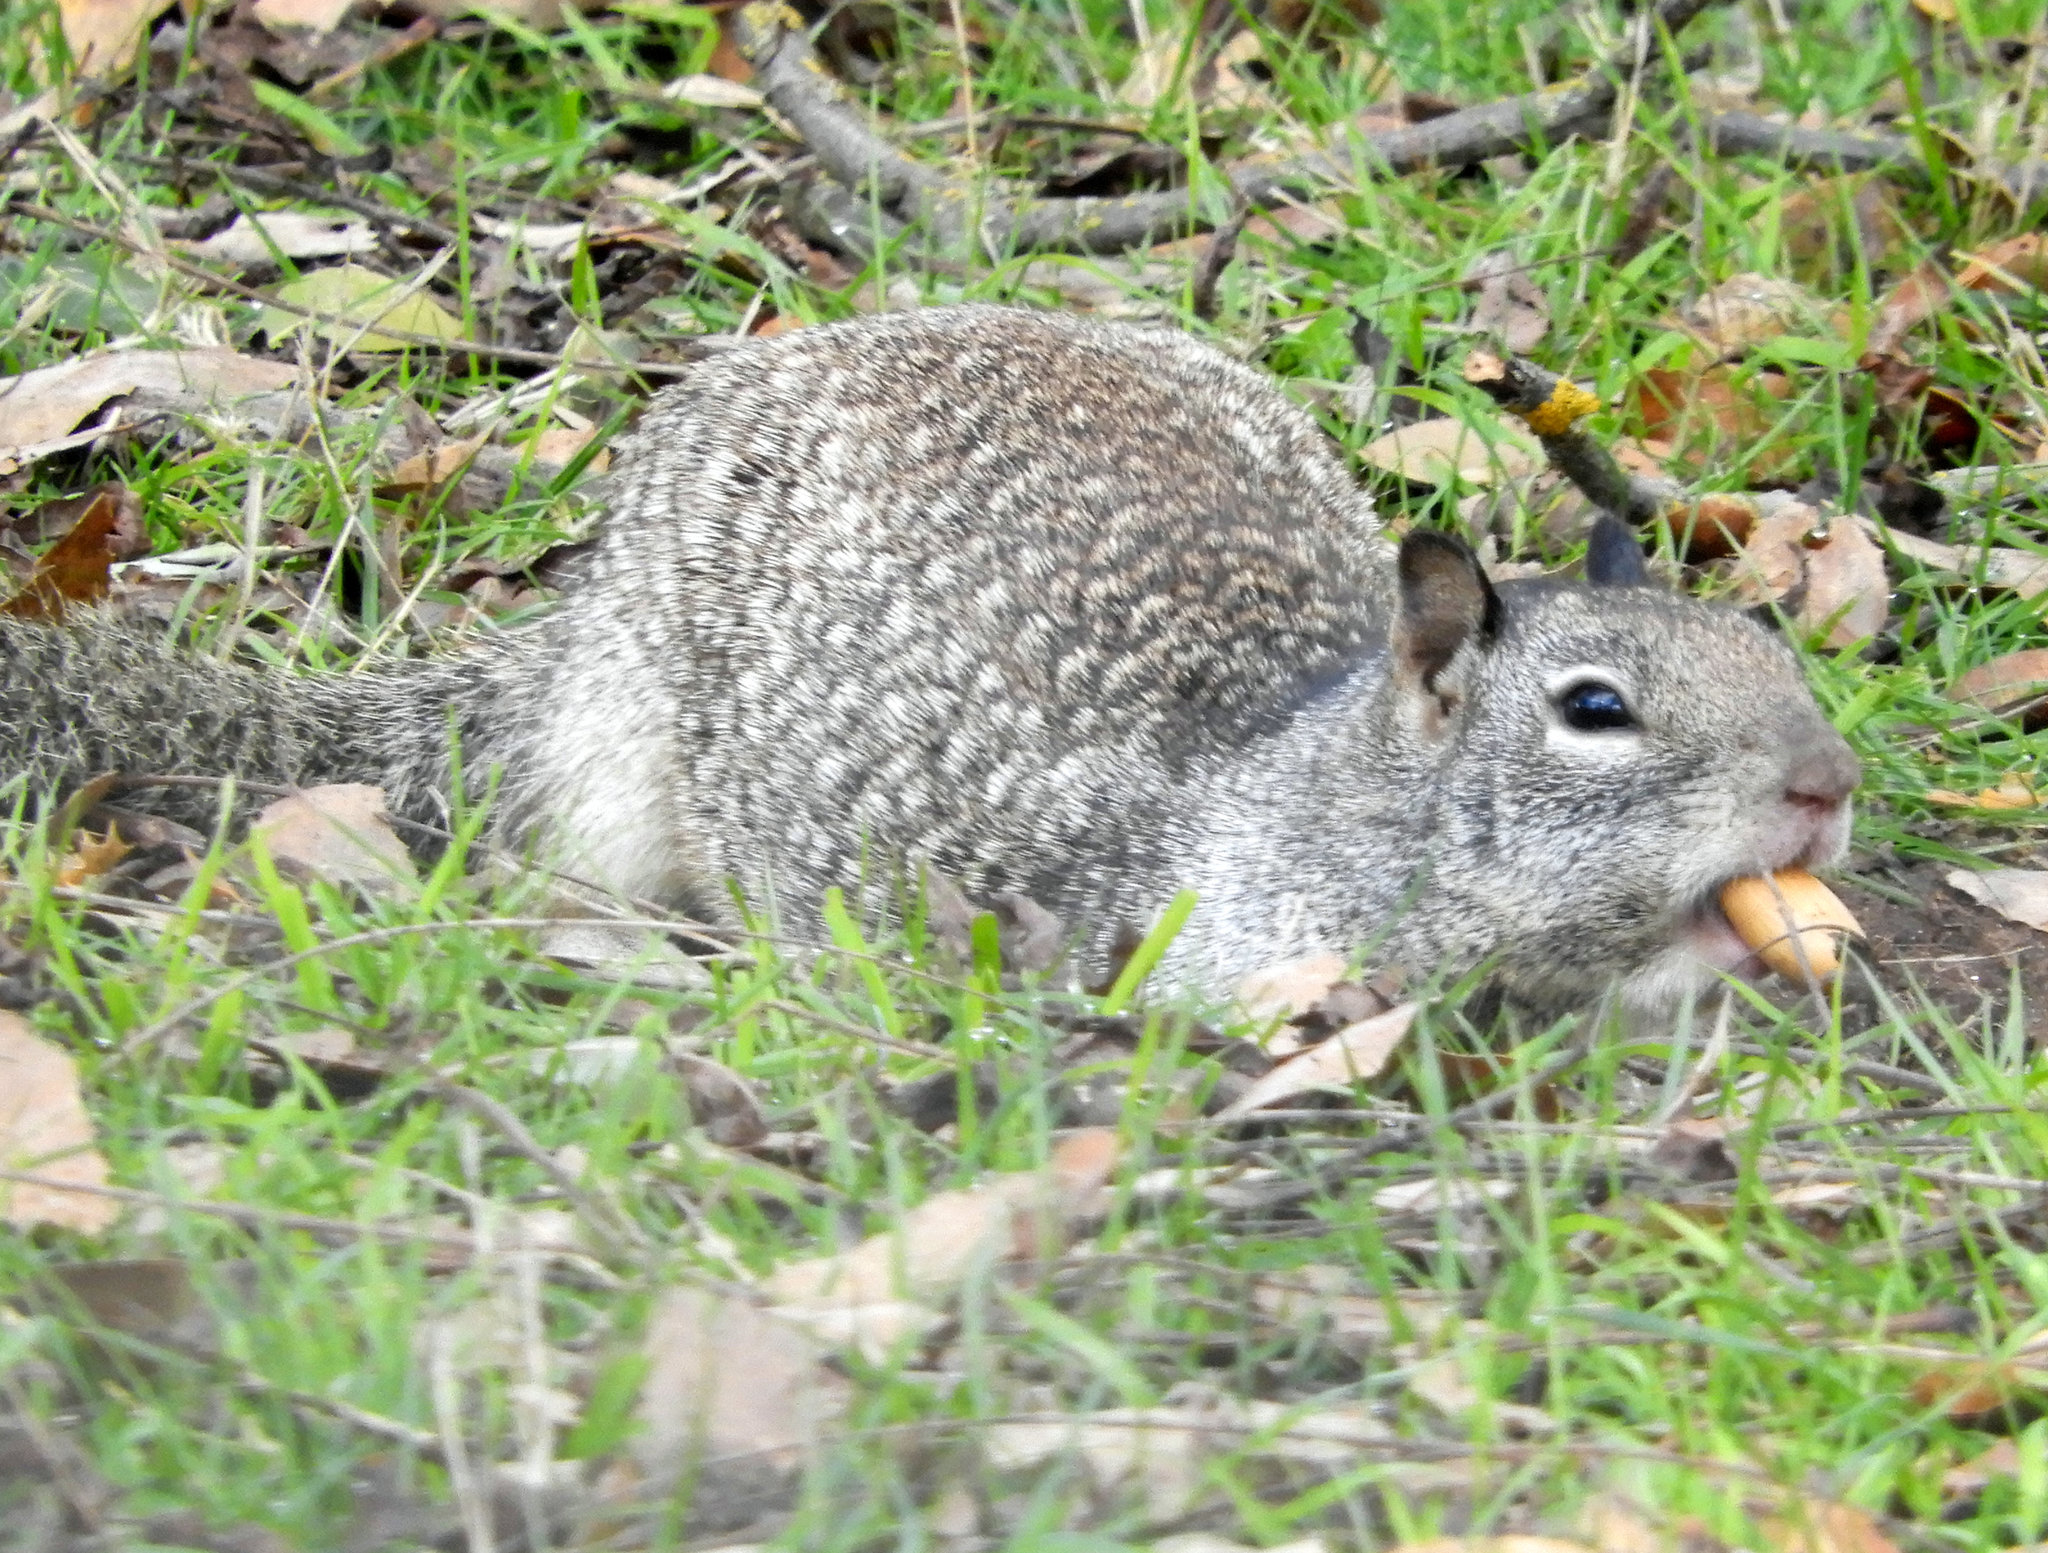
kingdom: Animalia
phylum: Chordata
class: Mammalia
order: Rodentia
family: Sciuridae
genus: Otospermophilus
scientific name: Otospermophilus beecheyi
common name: California ground squirrel
